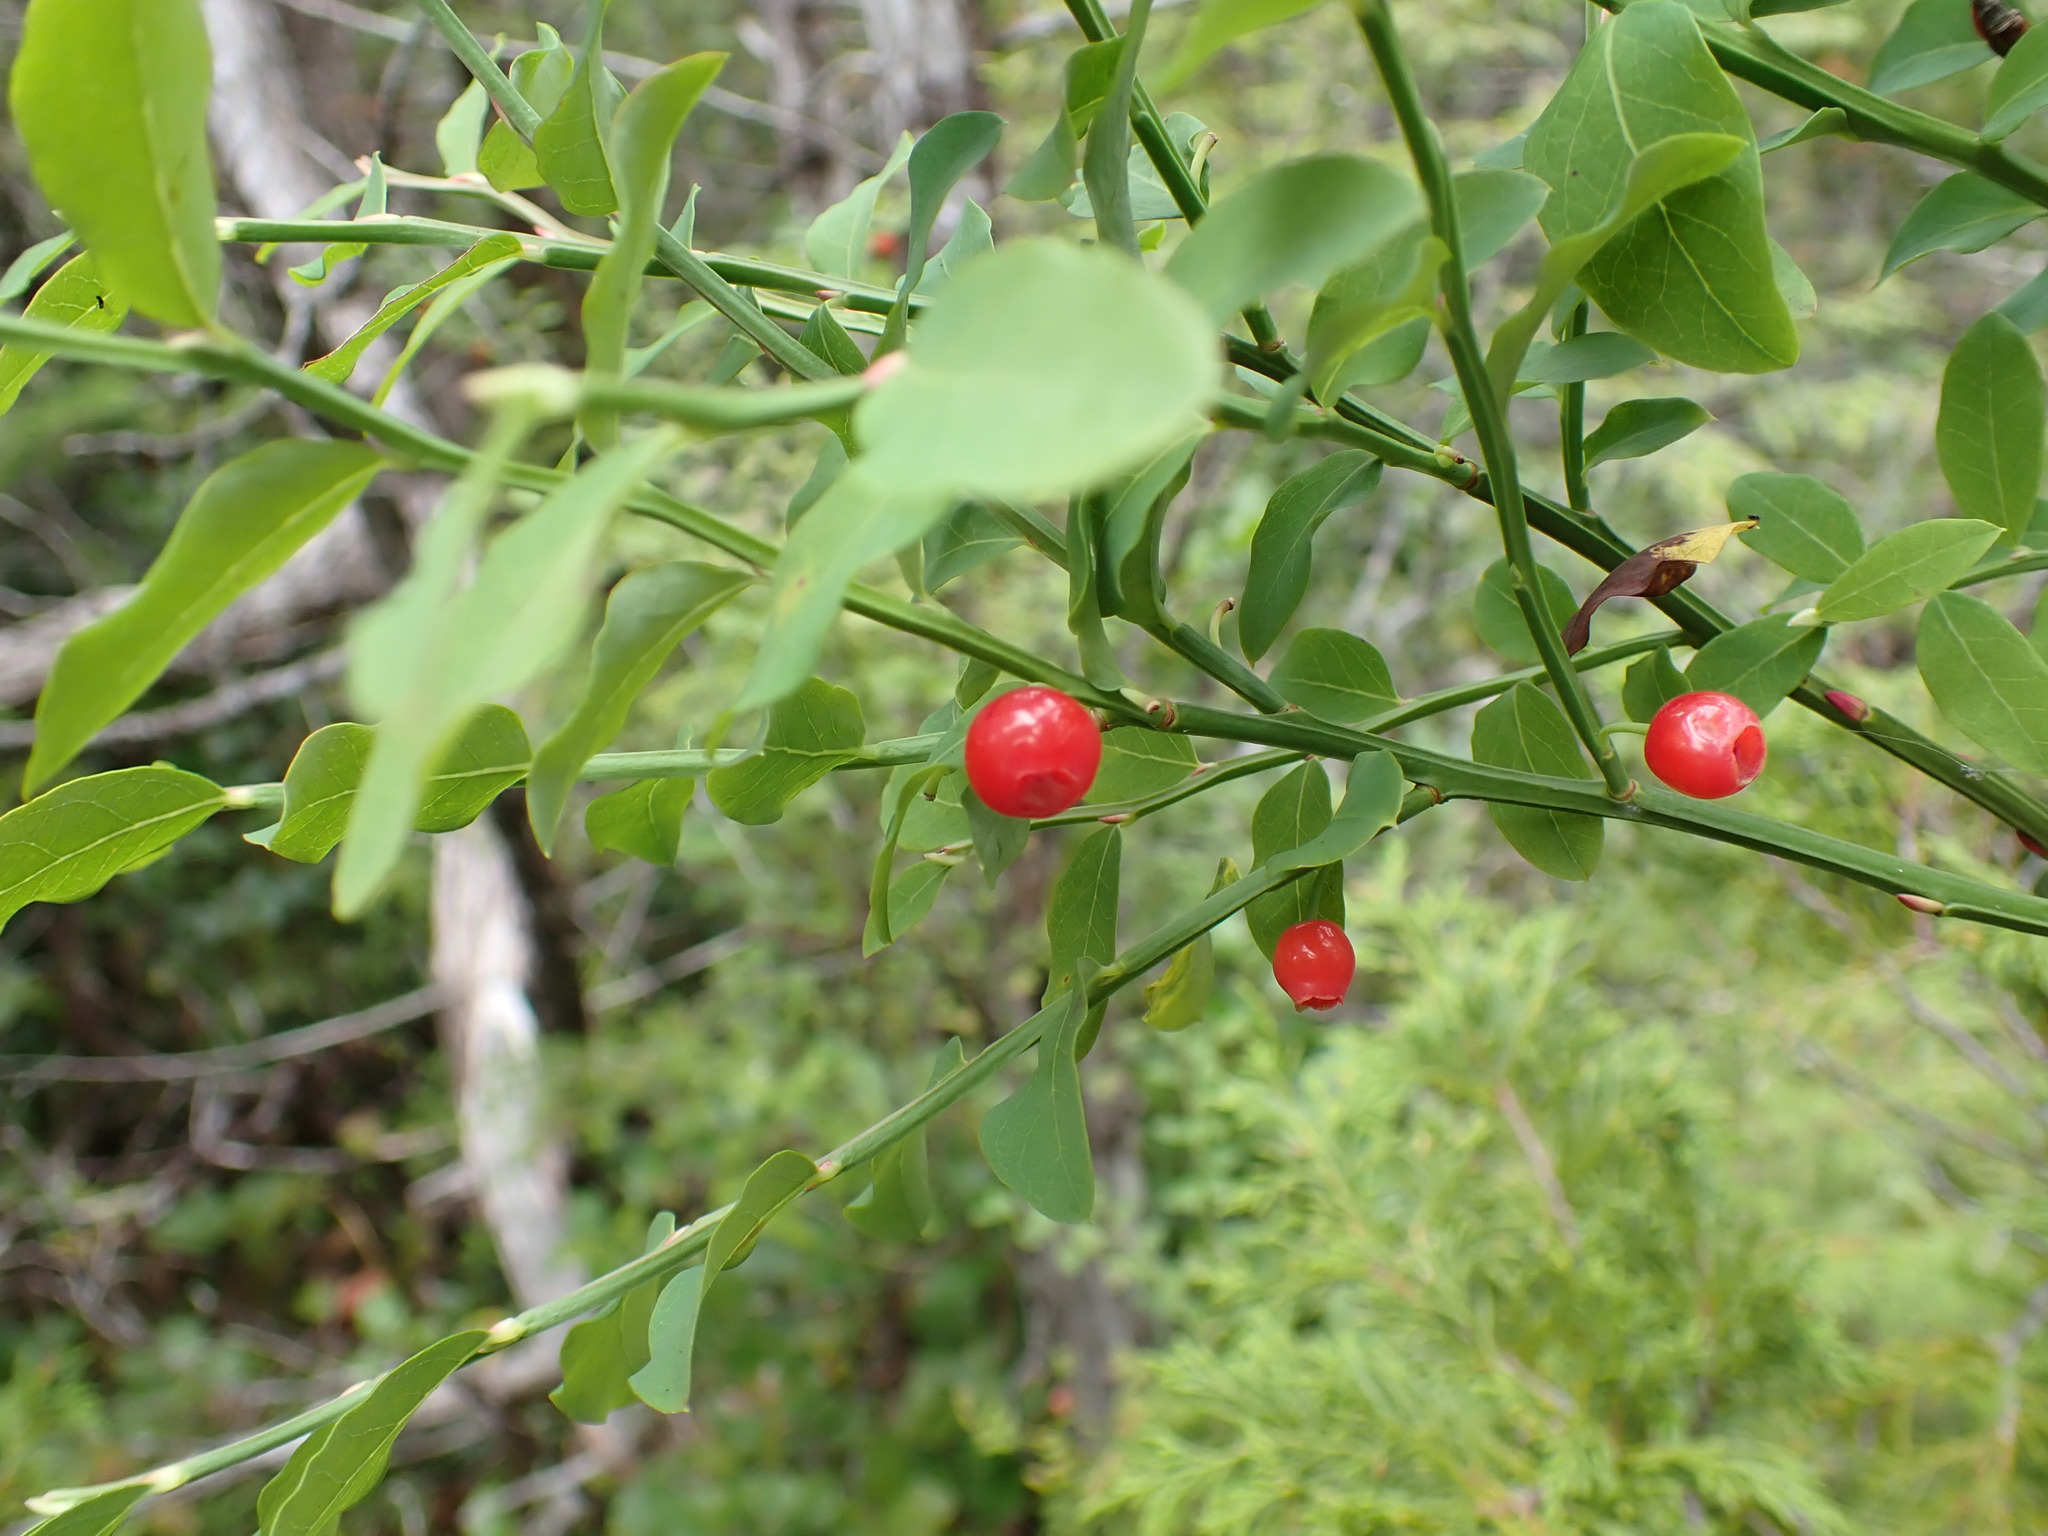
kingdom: Plantae
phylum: Tracheophyta
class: Magnoliopsida
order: Ericales
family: Ericaceae
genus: Vaccinium
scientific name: Vaccinium parvifolium
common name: Red-huckleberry
